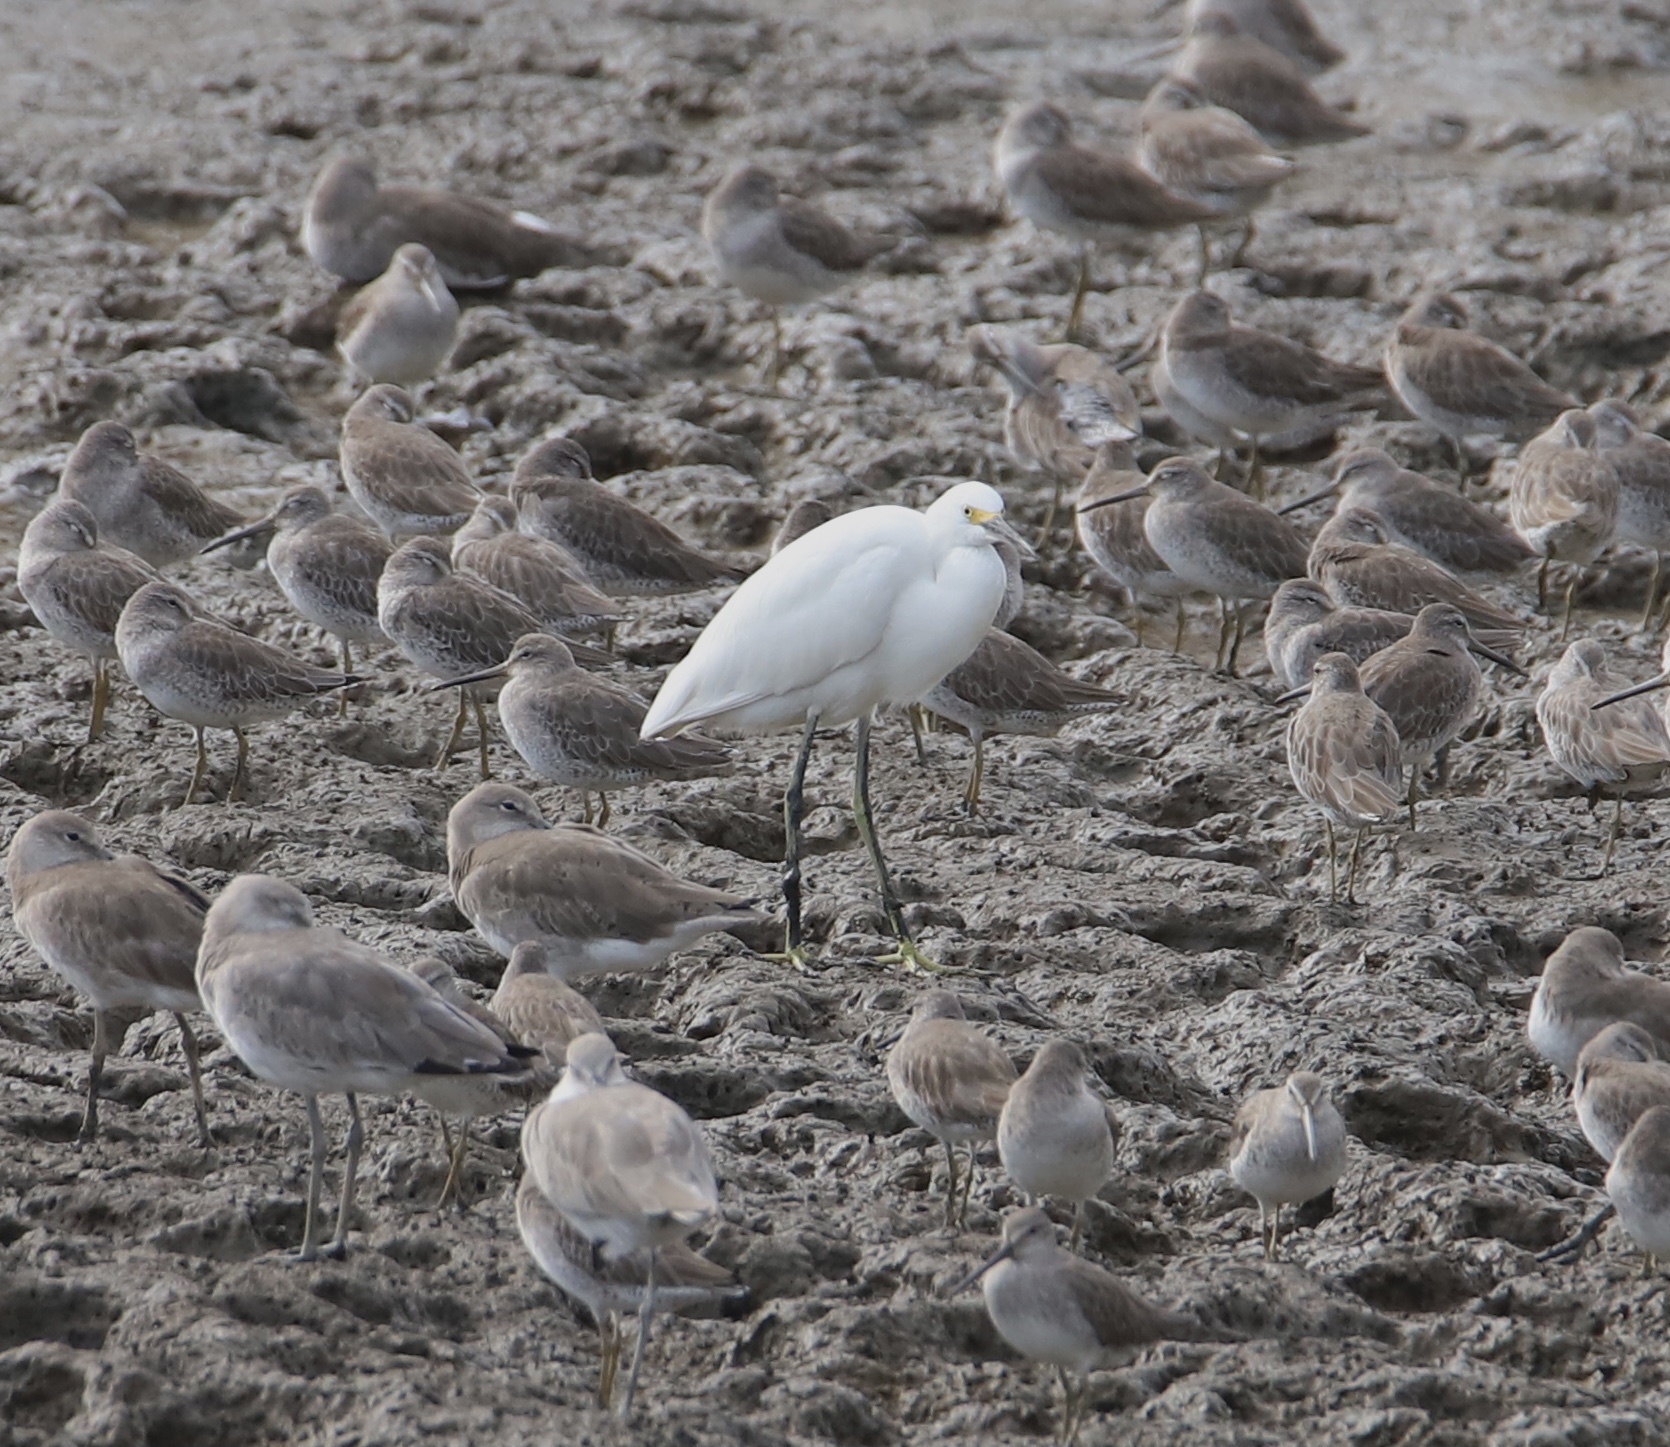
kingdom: Animalia
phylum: Chordata
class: Aves
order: Pelecaniformes
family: Ardeidae
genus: Egretta
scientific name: Egretta thula
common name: Snowy egret
